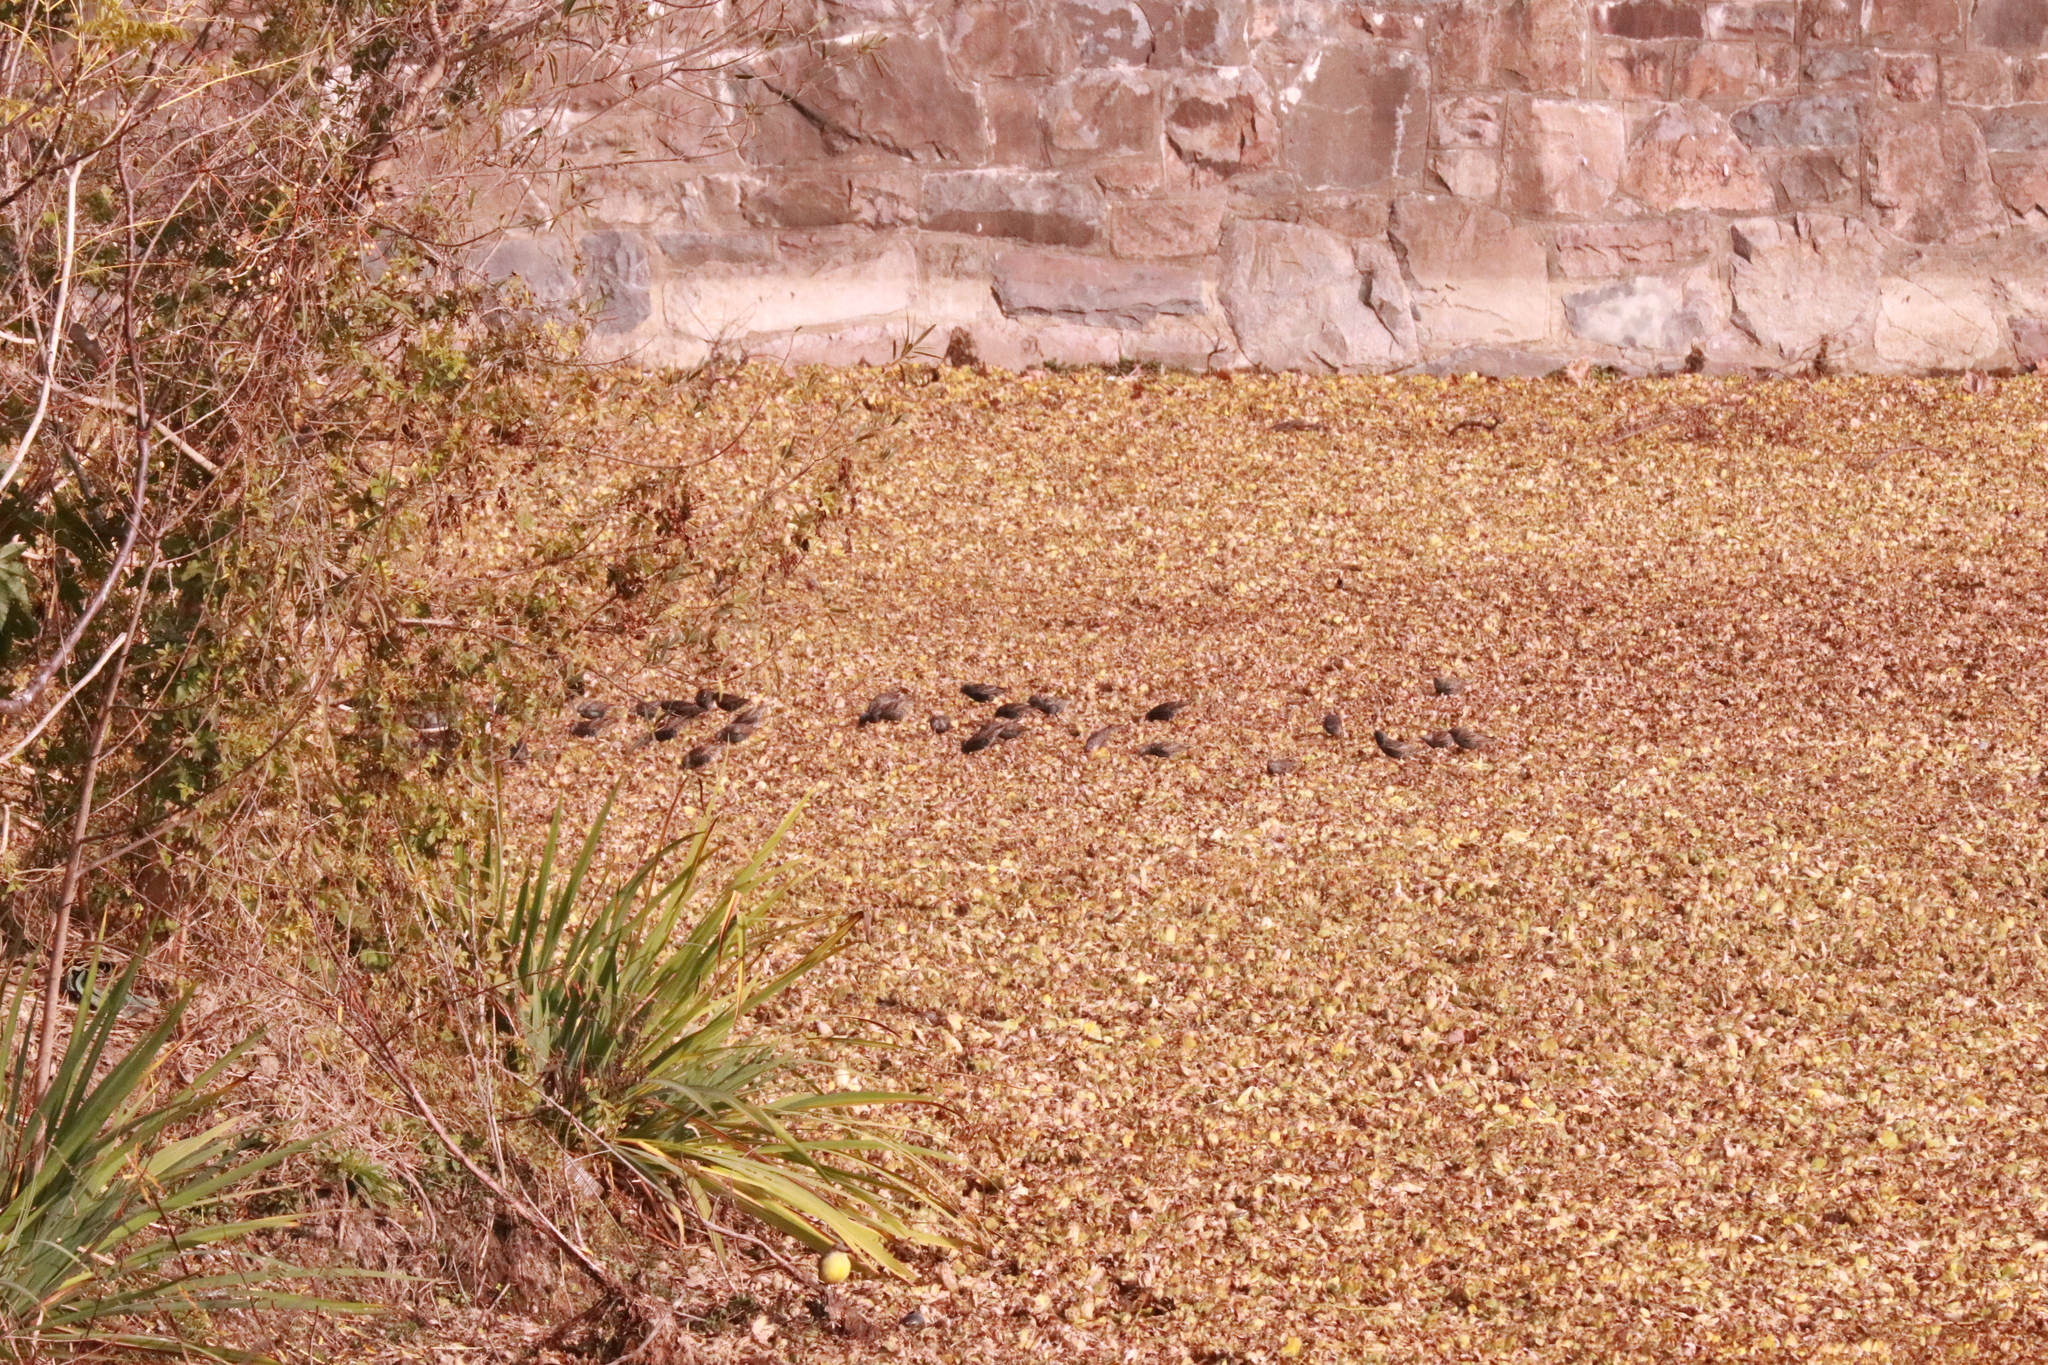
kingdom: Animalia
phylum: Chordata
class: Aves
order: Passeriformes
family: Sturnidae
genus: Sturnus
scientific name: Sturnus vulgaris
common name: Common starling
